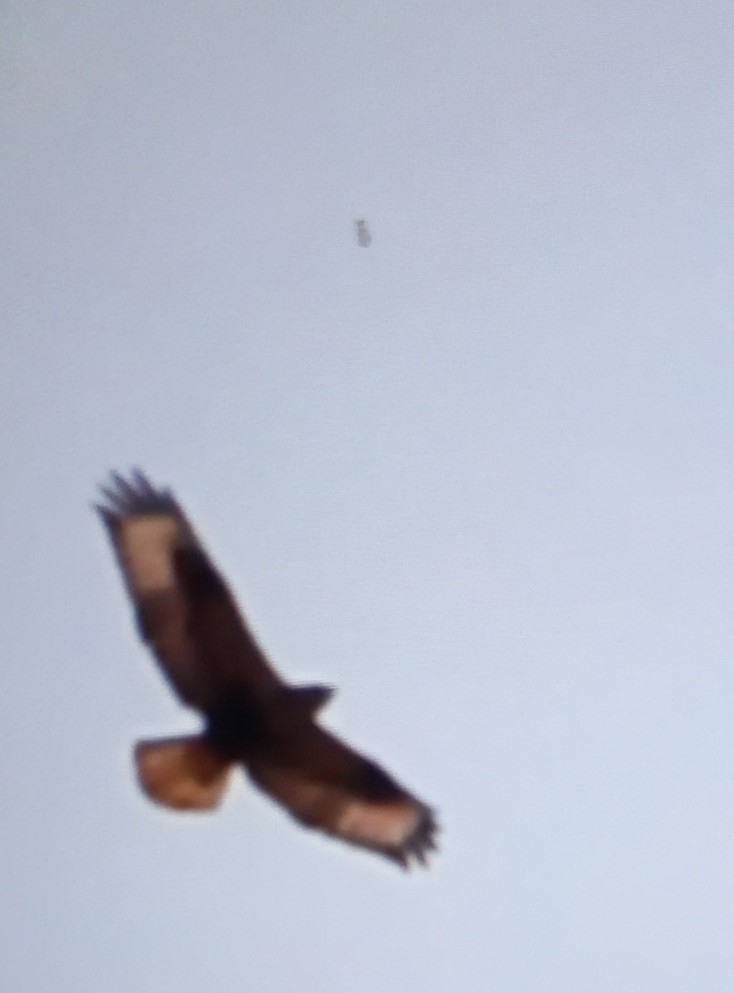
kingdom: Animalia
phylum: Chordata
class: Aves
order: Accipitriformes
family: Accipitridae
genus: Buteo
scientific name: Buteo rufinus
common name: Long-legged buzzard
